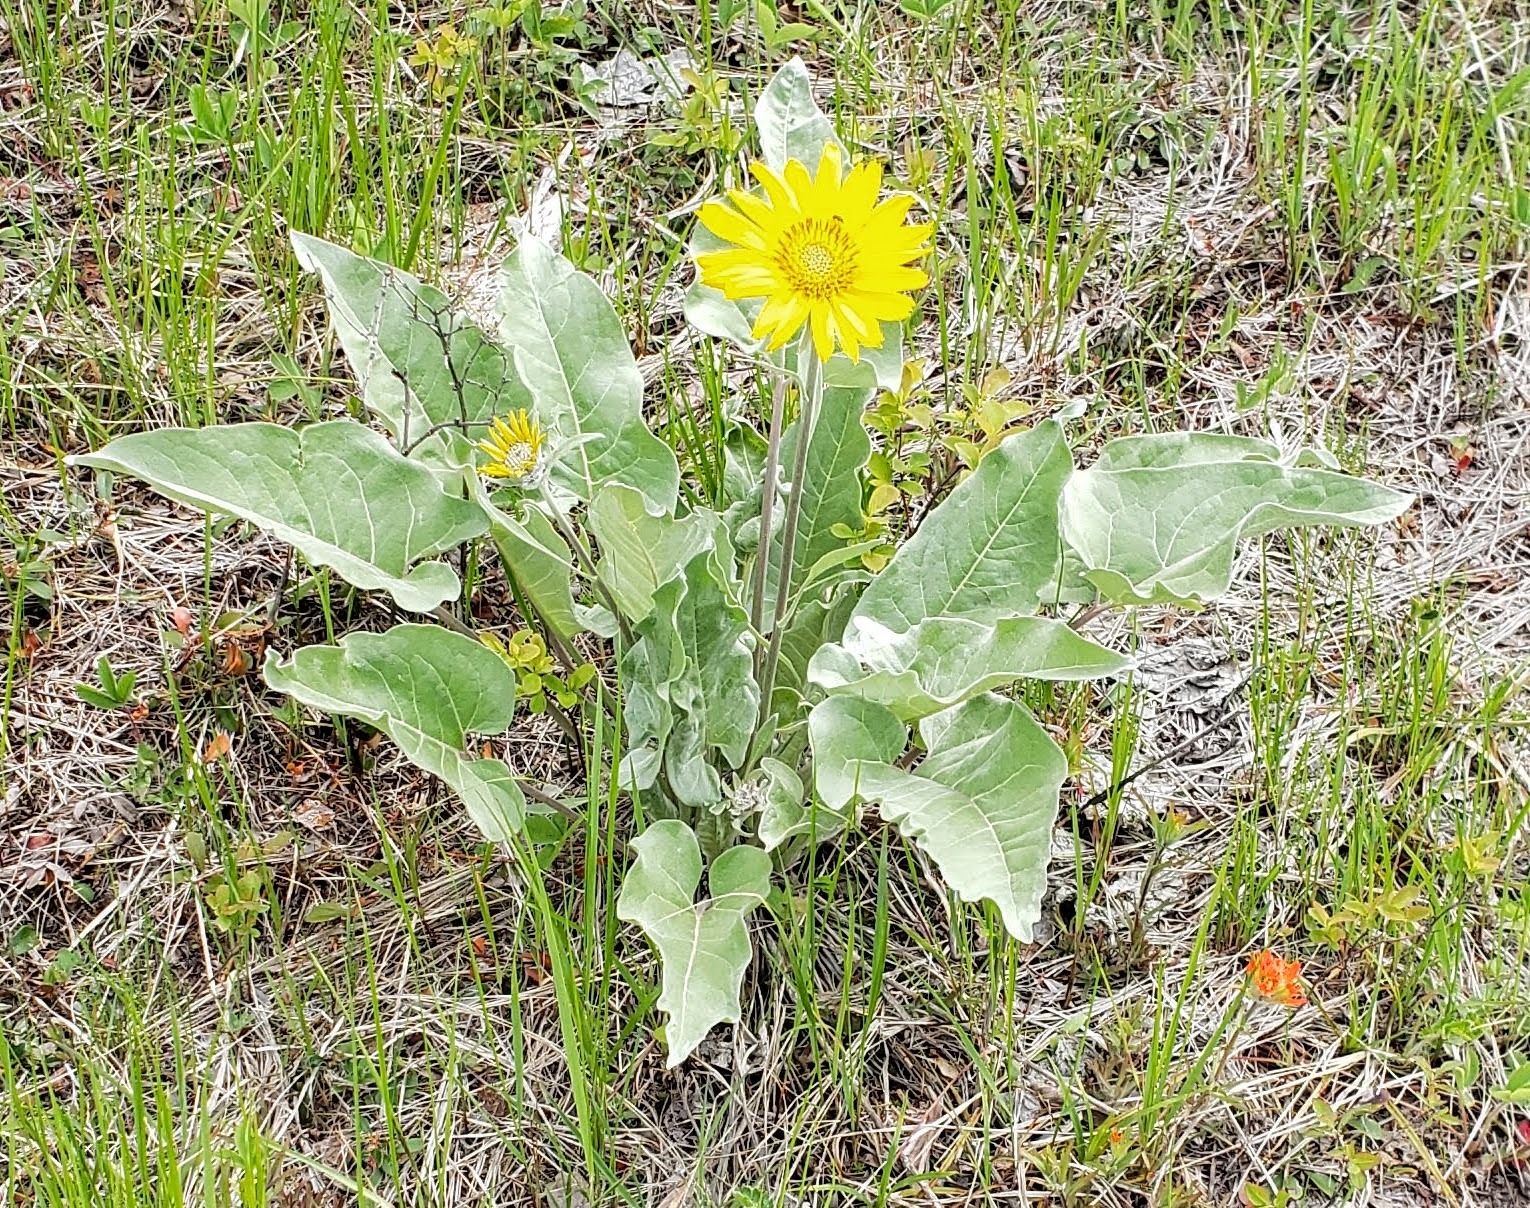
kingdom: Plantae
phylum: Tracheophyta
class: Magnoliopsida
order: Asterales
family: Asteraceae
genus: Wyethia
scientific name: Wyethia sagittata
